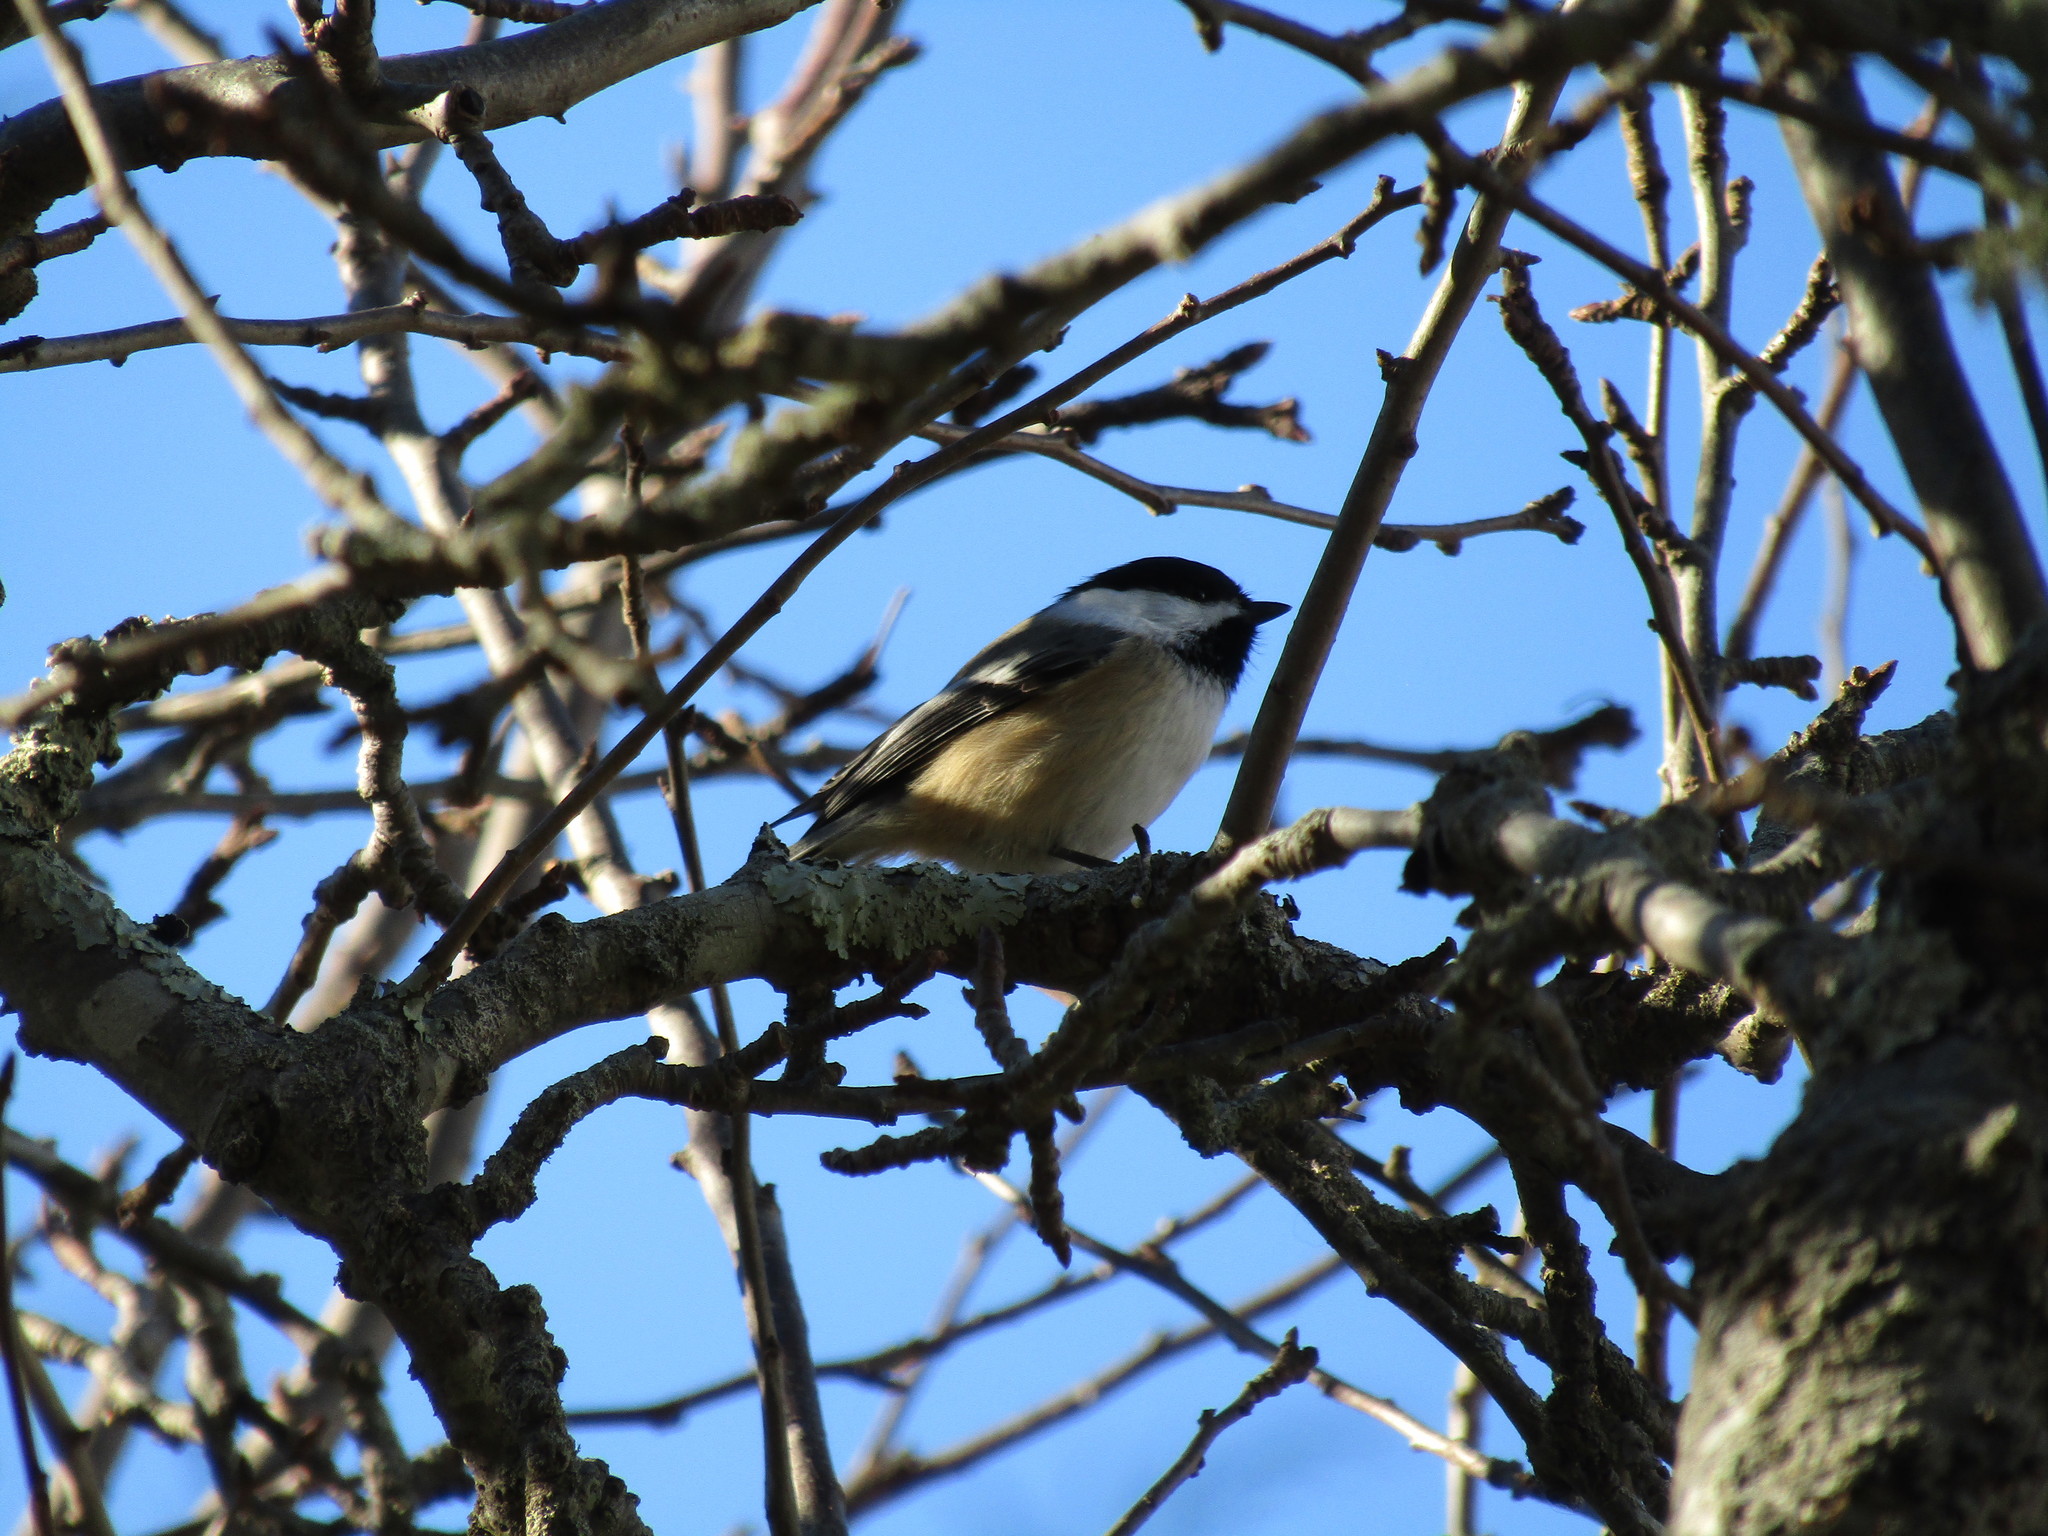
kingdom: Animalia
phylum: Chordata
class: Aves
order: Passeriformes
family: Paridae
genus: Poecile
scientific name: Poecile atricapillus
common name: Black-capped chickadee
